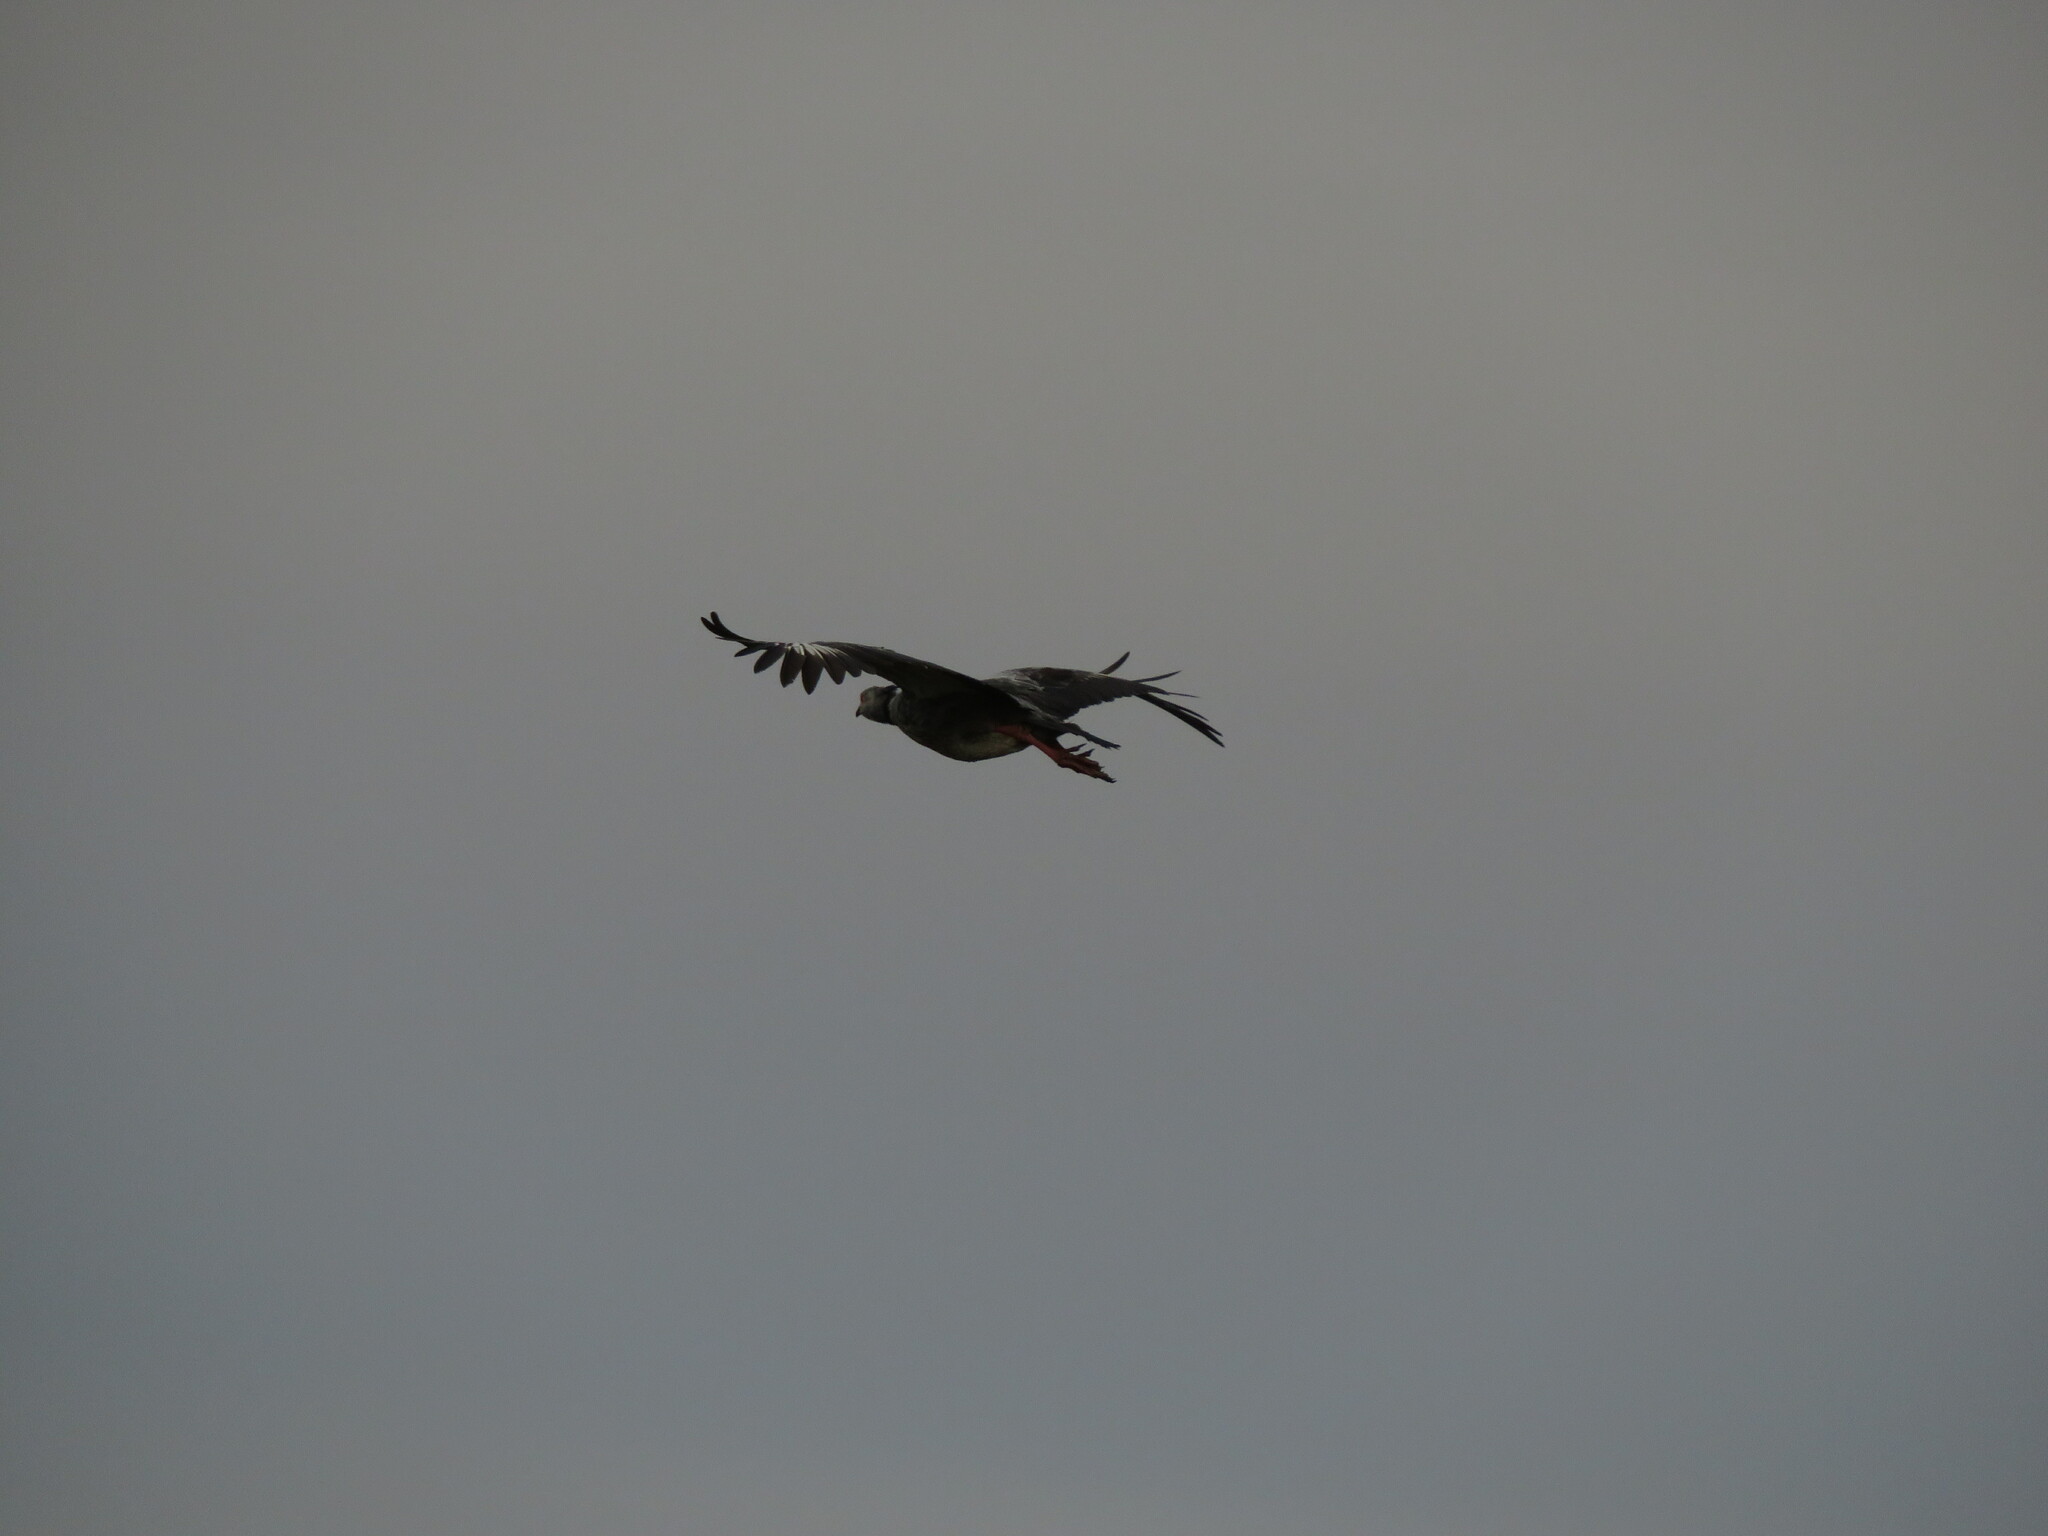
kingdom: Animalia
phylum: Chordata
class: Aves
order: Anseriformes
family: Anhimidae
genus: Chauna
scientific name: Chauna torquata
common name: Southern screamer
